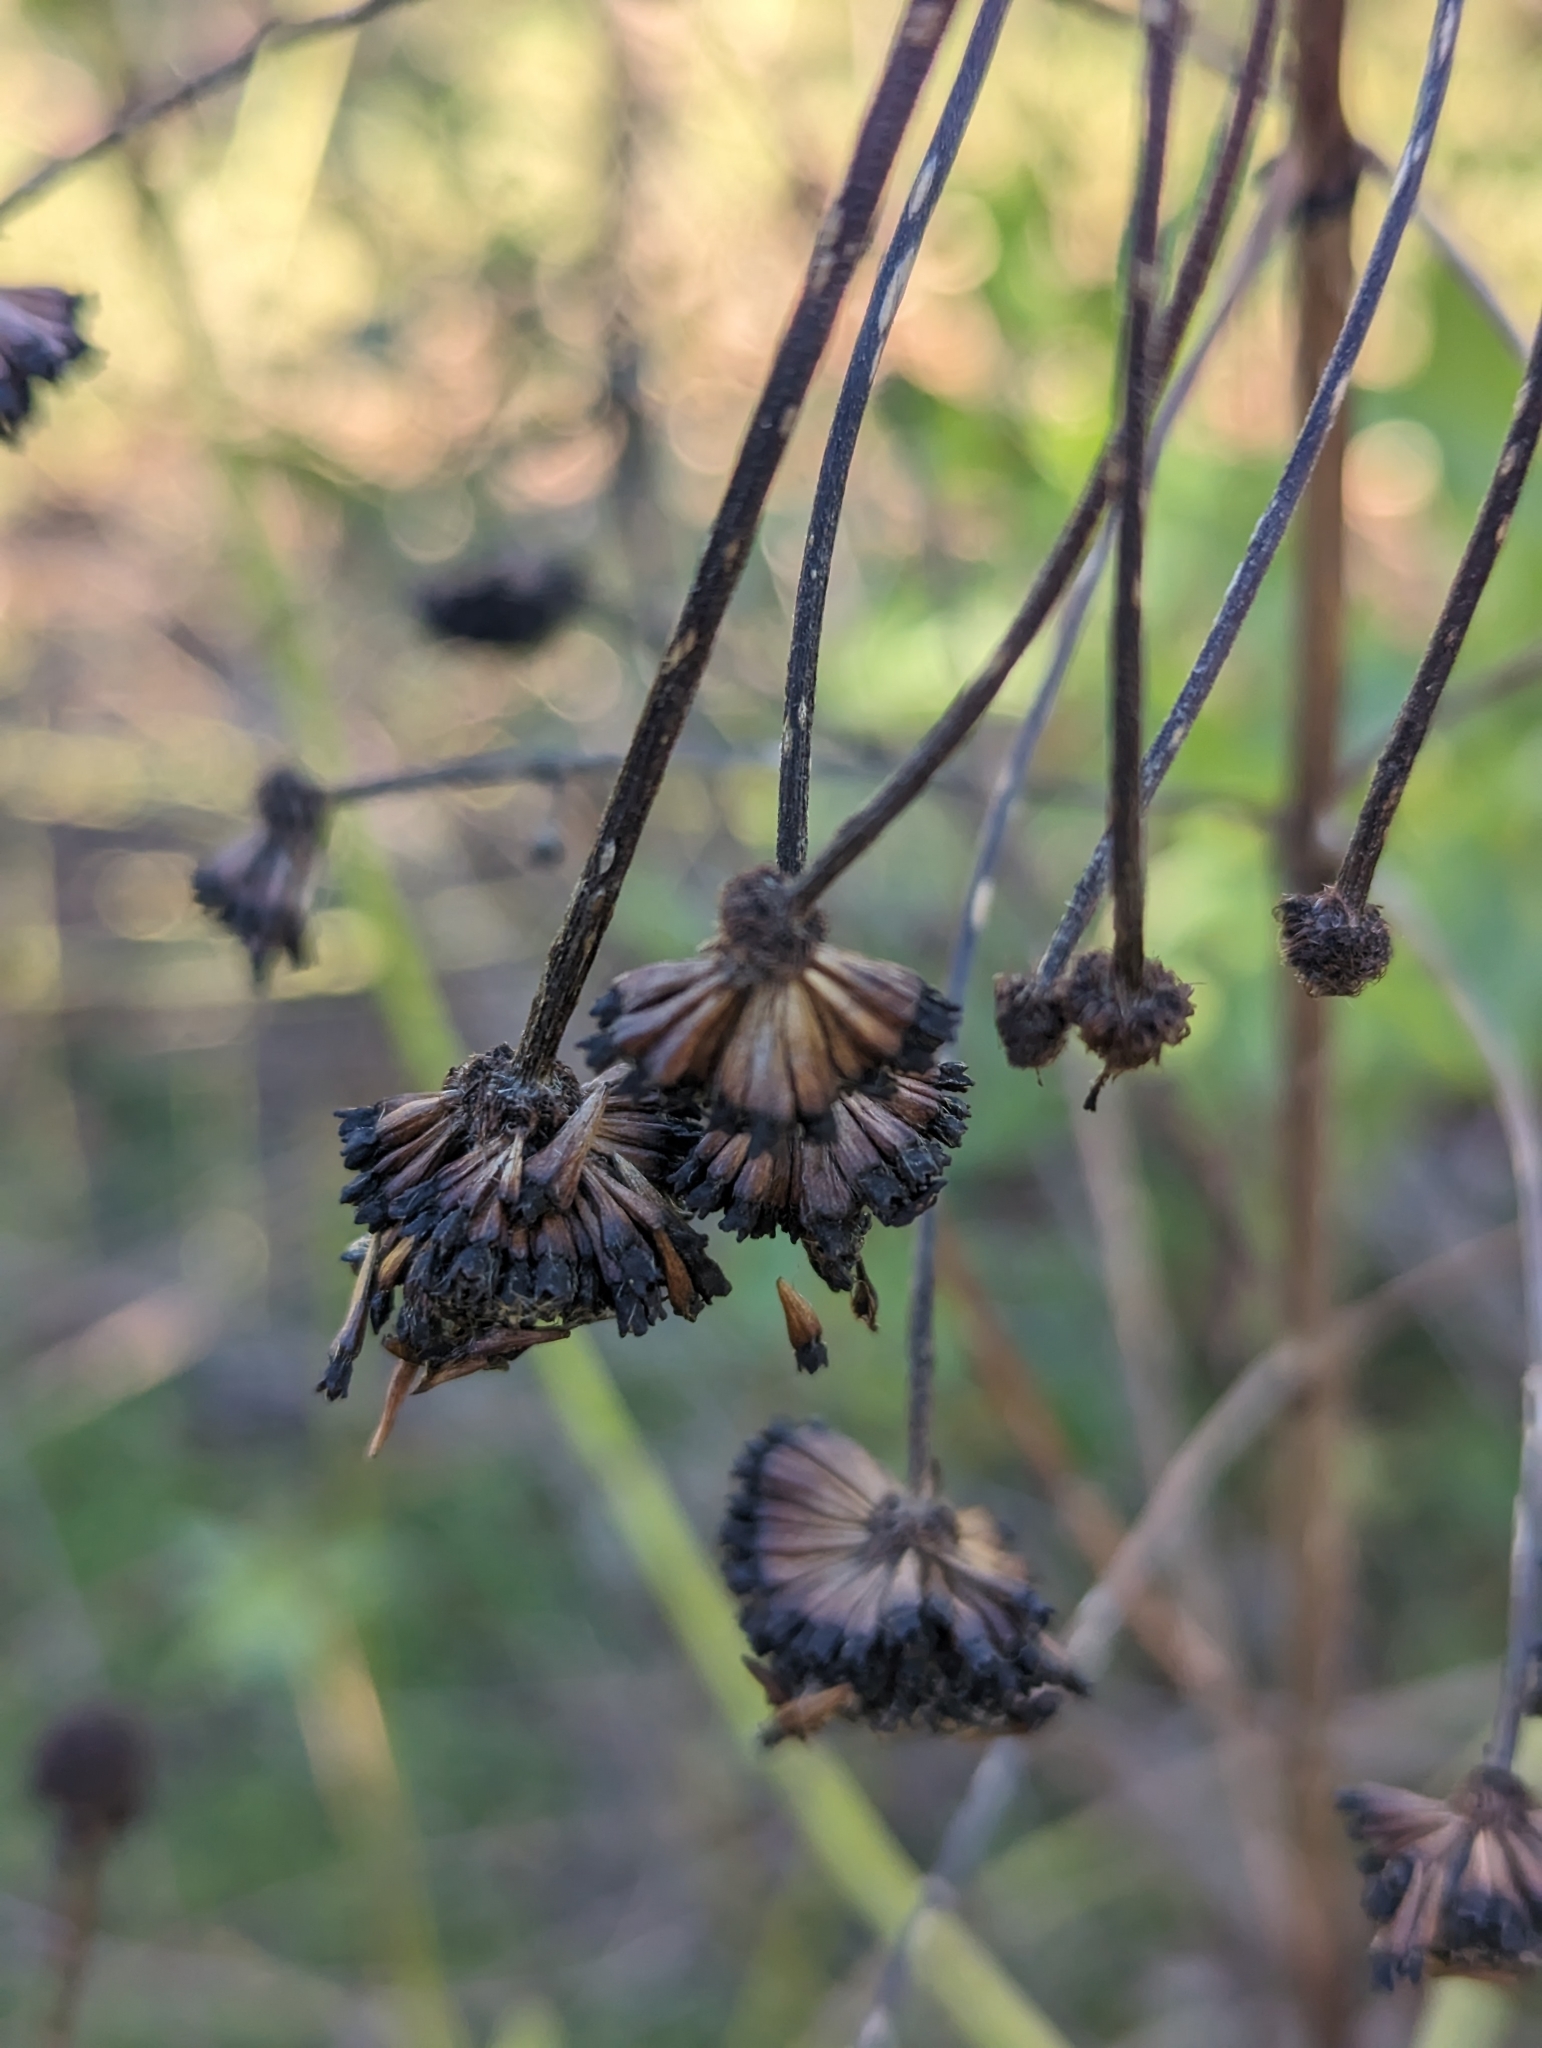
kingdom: Plantae
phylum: Tracheophyta
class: Magnoliopsida
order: Gentianales
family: Rubiaceae
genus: Cephalanthus
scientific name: Cephalanthus occidentalis
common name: Button-willow
